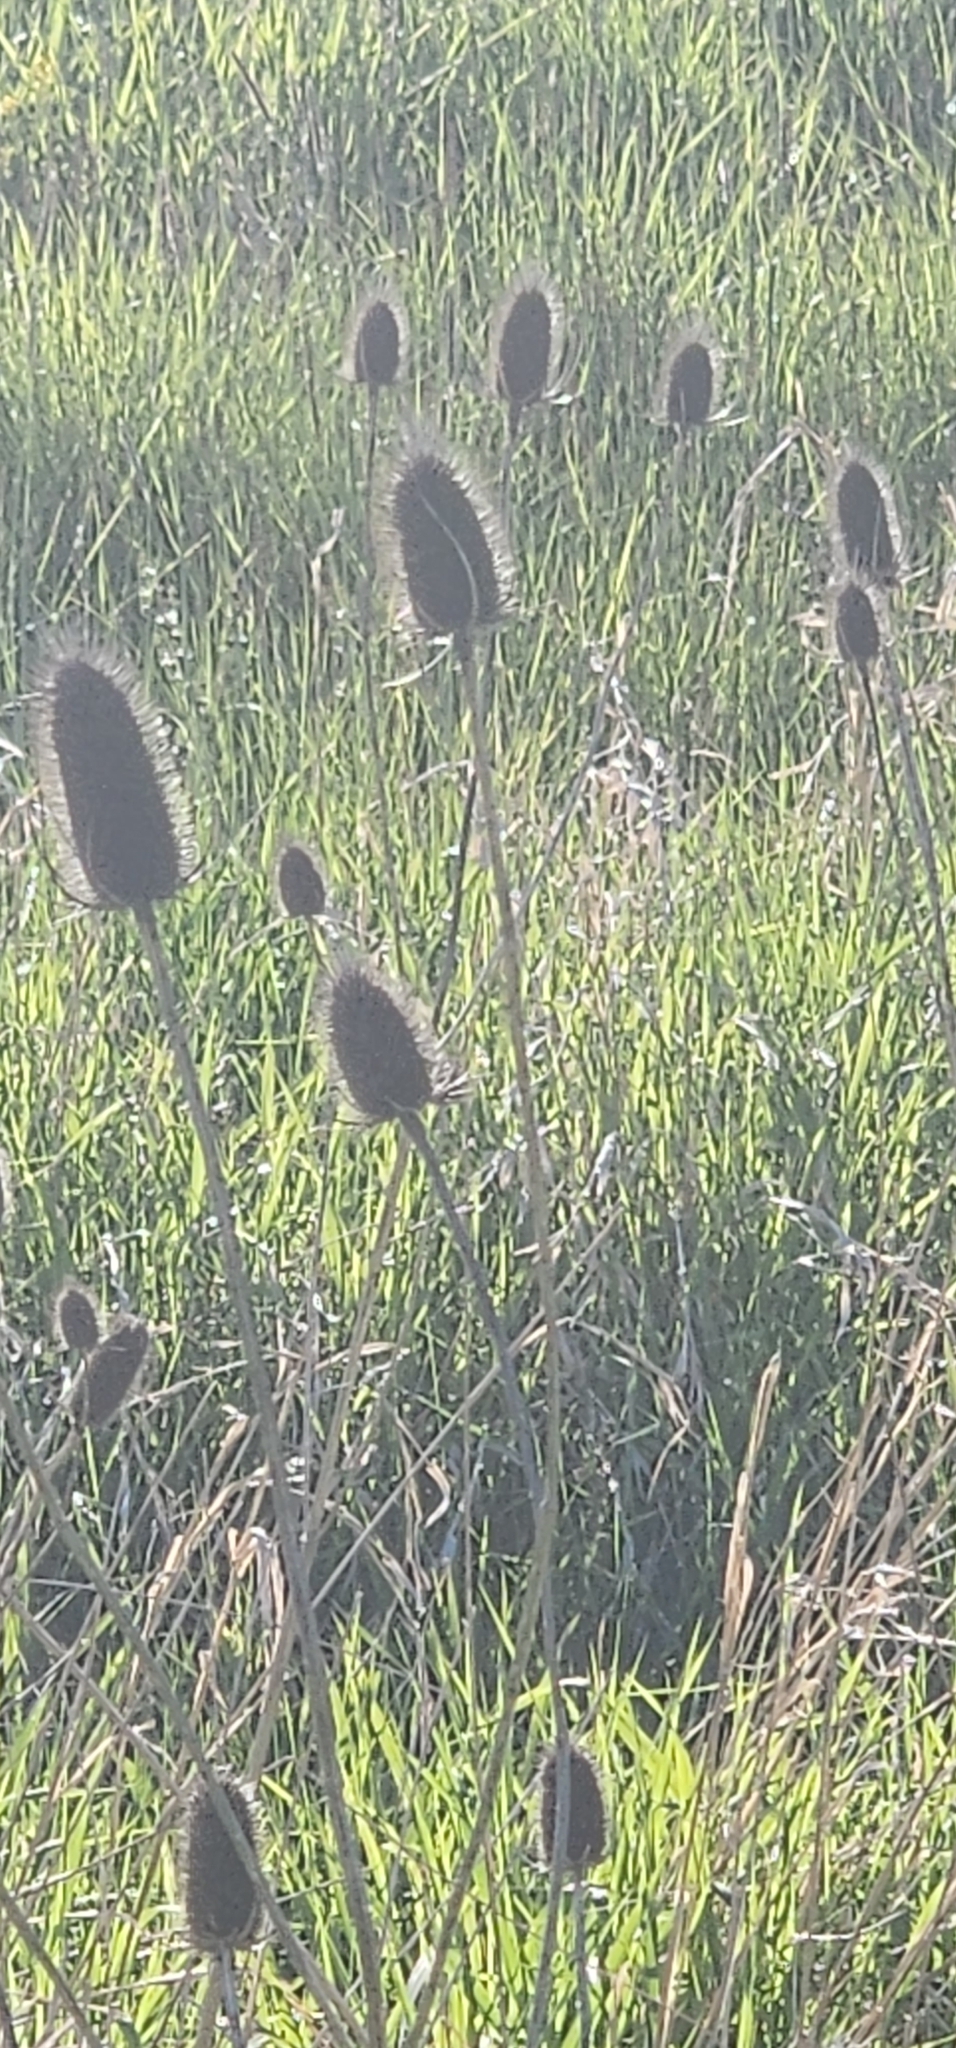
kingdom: Plantae
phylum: Tracheophyta
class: Magnoliopsida
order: Dipsacales
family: Caprifoliaceae
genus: Dipsacus
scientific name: Dipsacus fullonum
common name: Teasel
